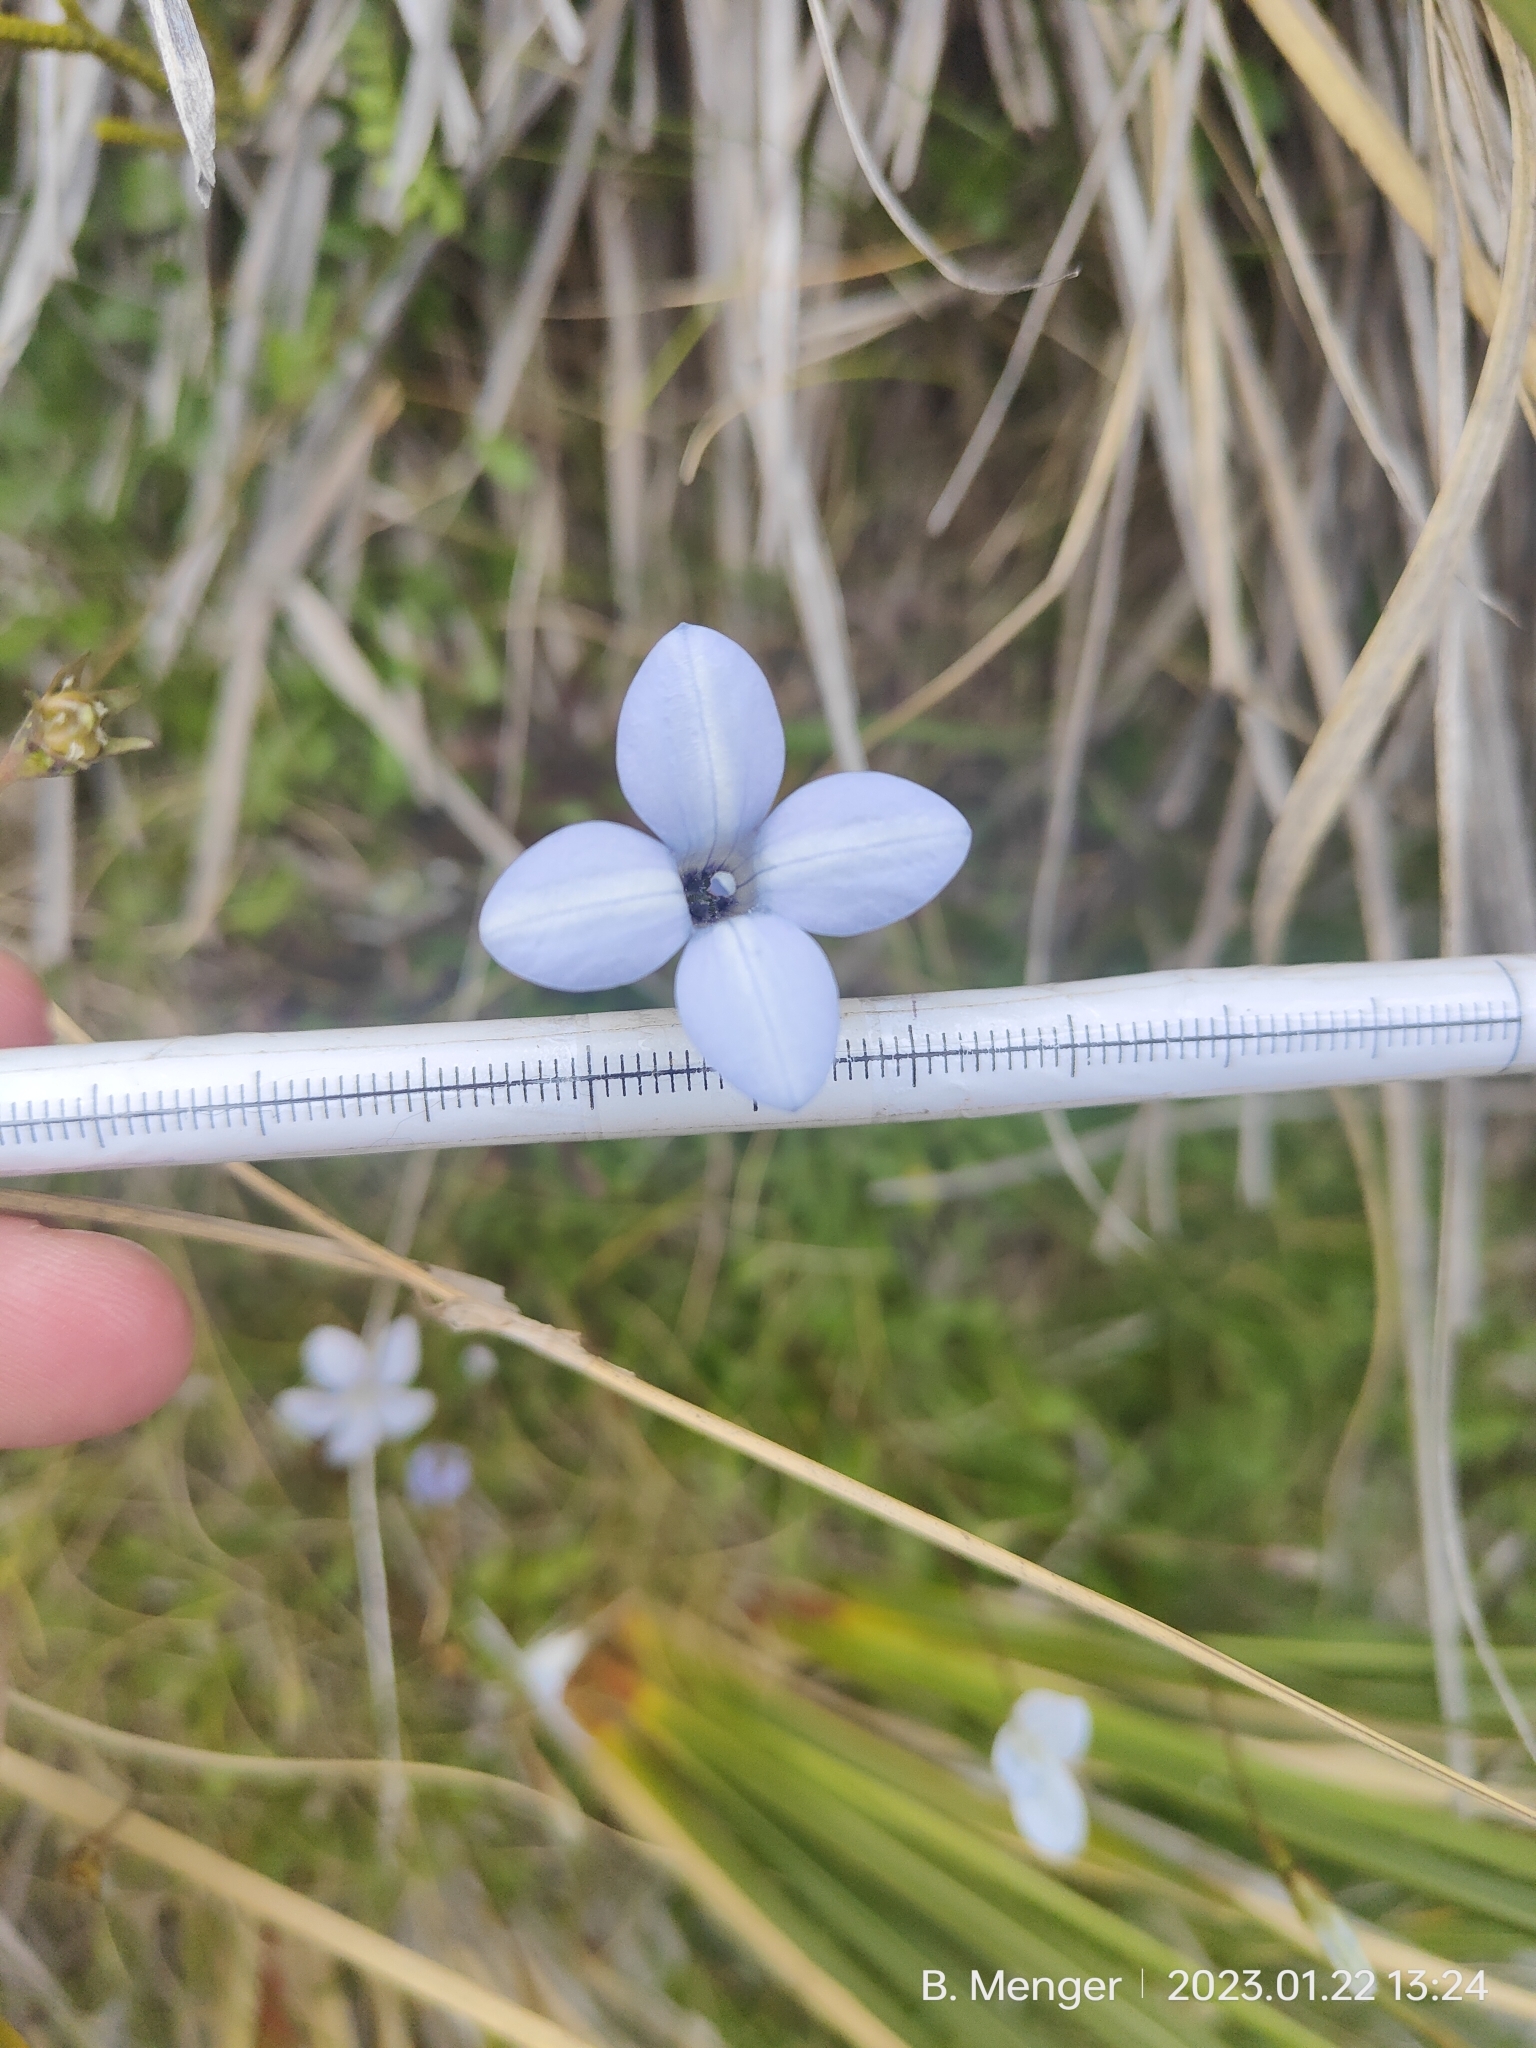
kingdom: Plantae
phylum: Tracheophyta
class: Magnoliopsida
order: Asterales
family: Campanulaceae
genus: Wahlenbergia
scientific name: Wahlenbergia albomarginata
